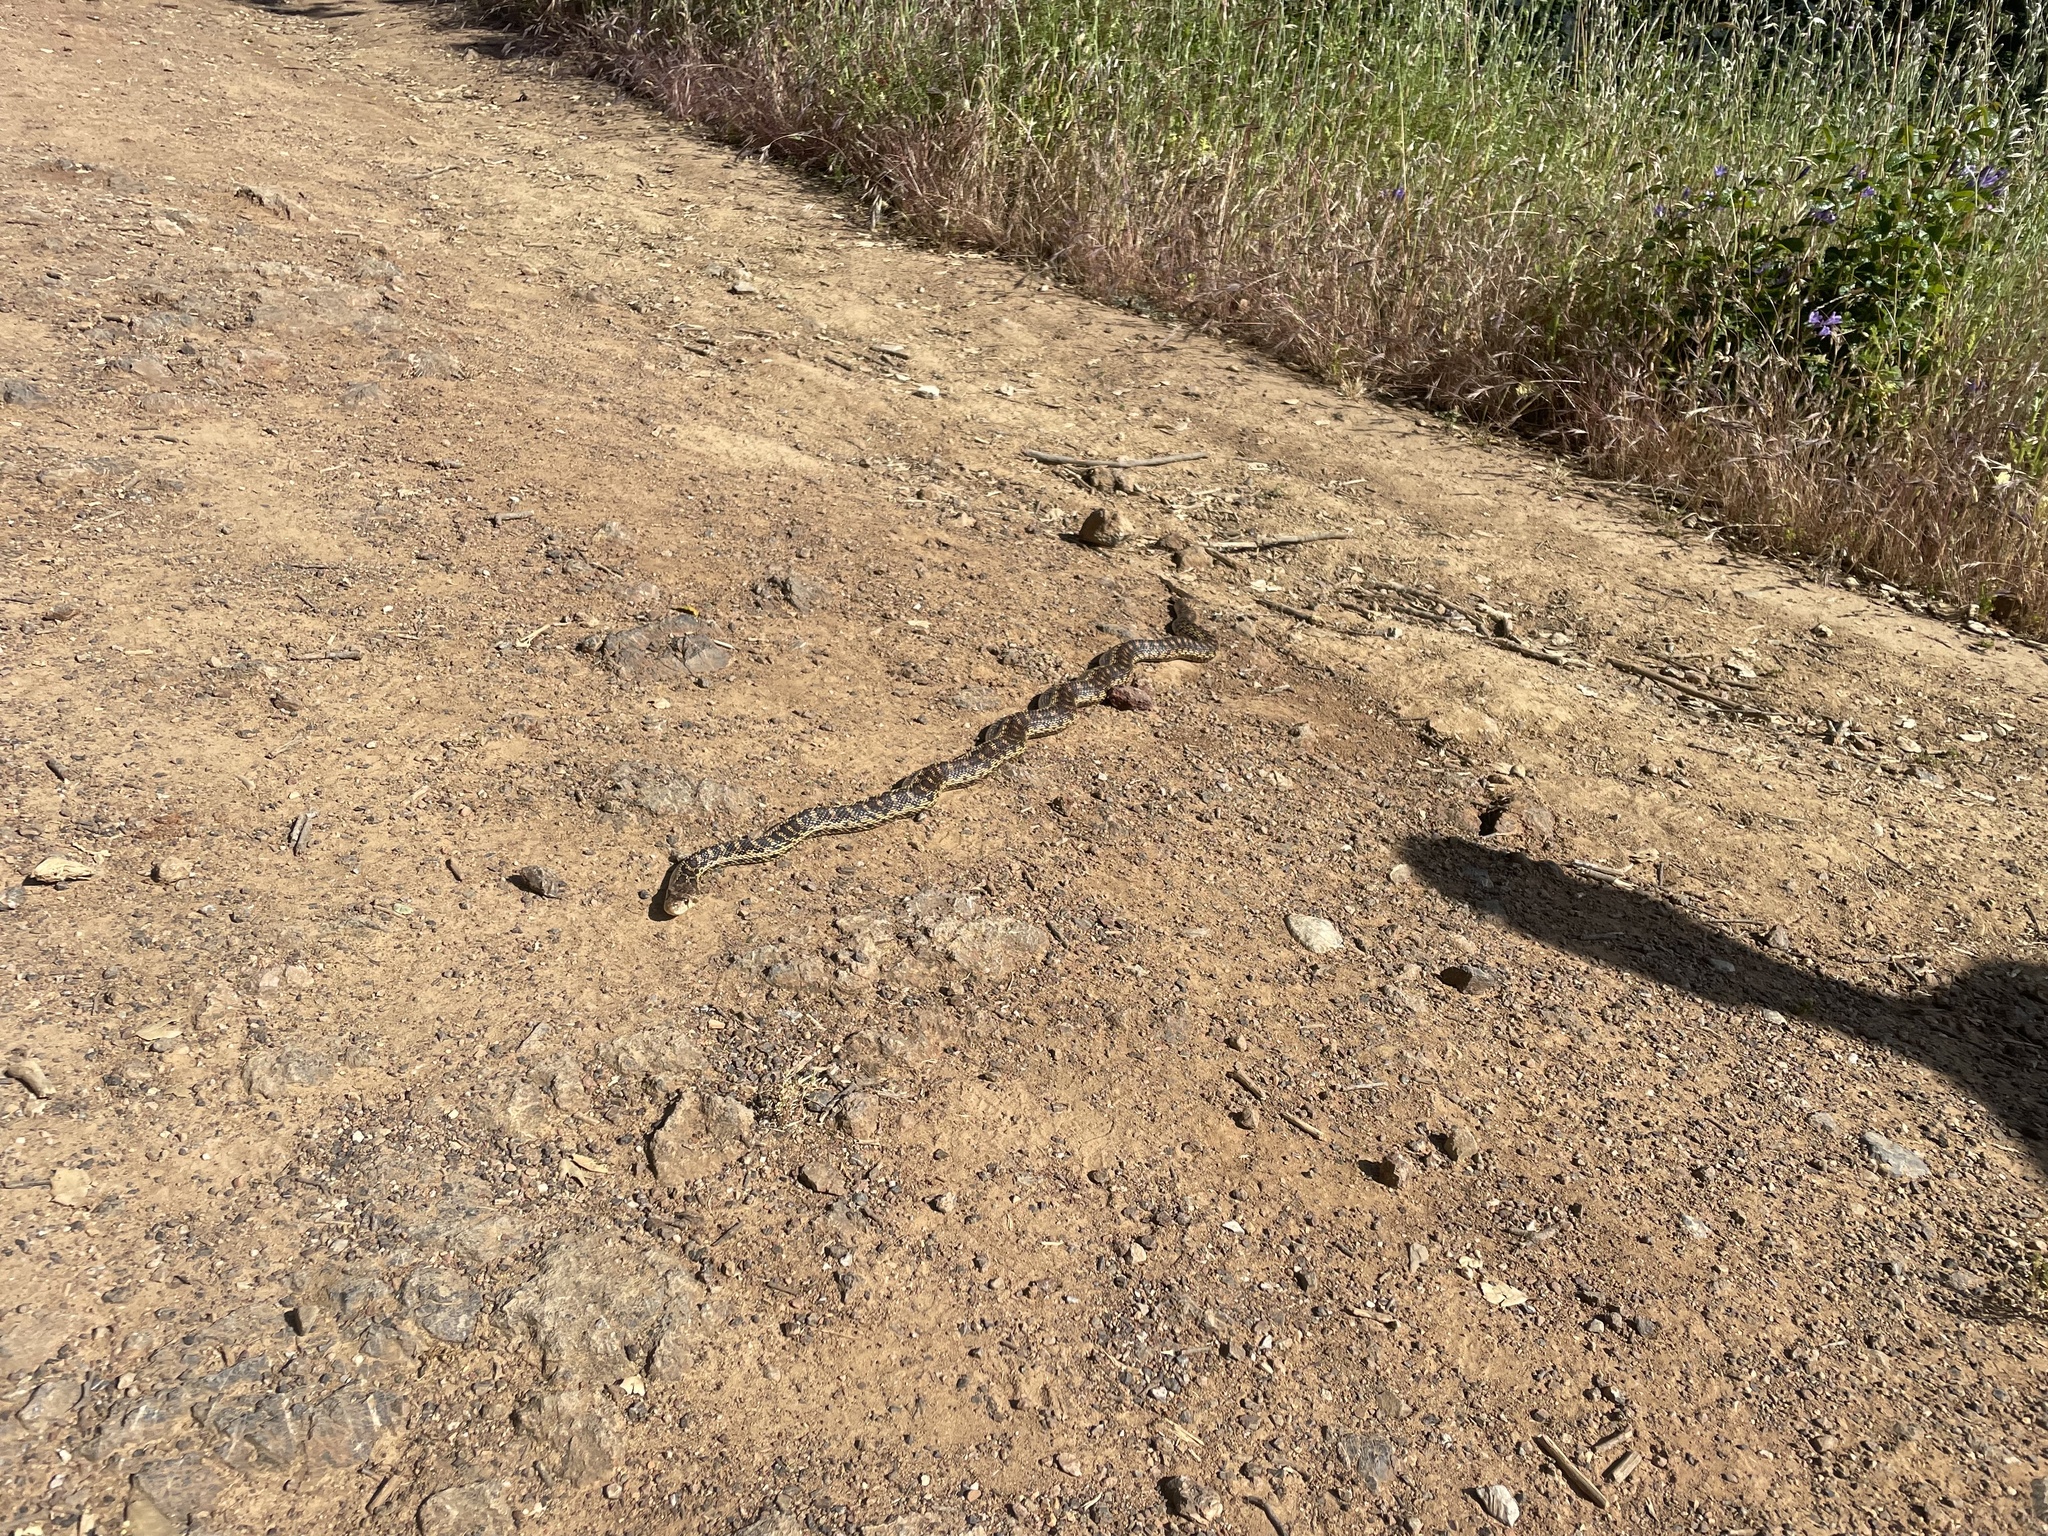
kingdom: Animalia
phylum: Chordata
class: Squamata
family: Colubridae
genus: Pituophis
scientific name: Pituophis catenifer
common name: Gopher snake
